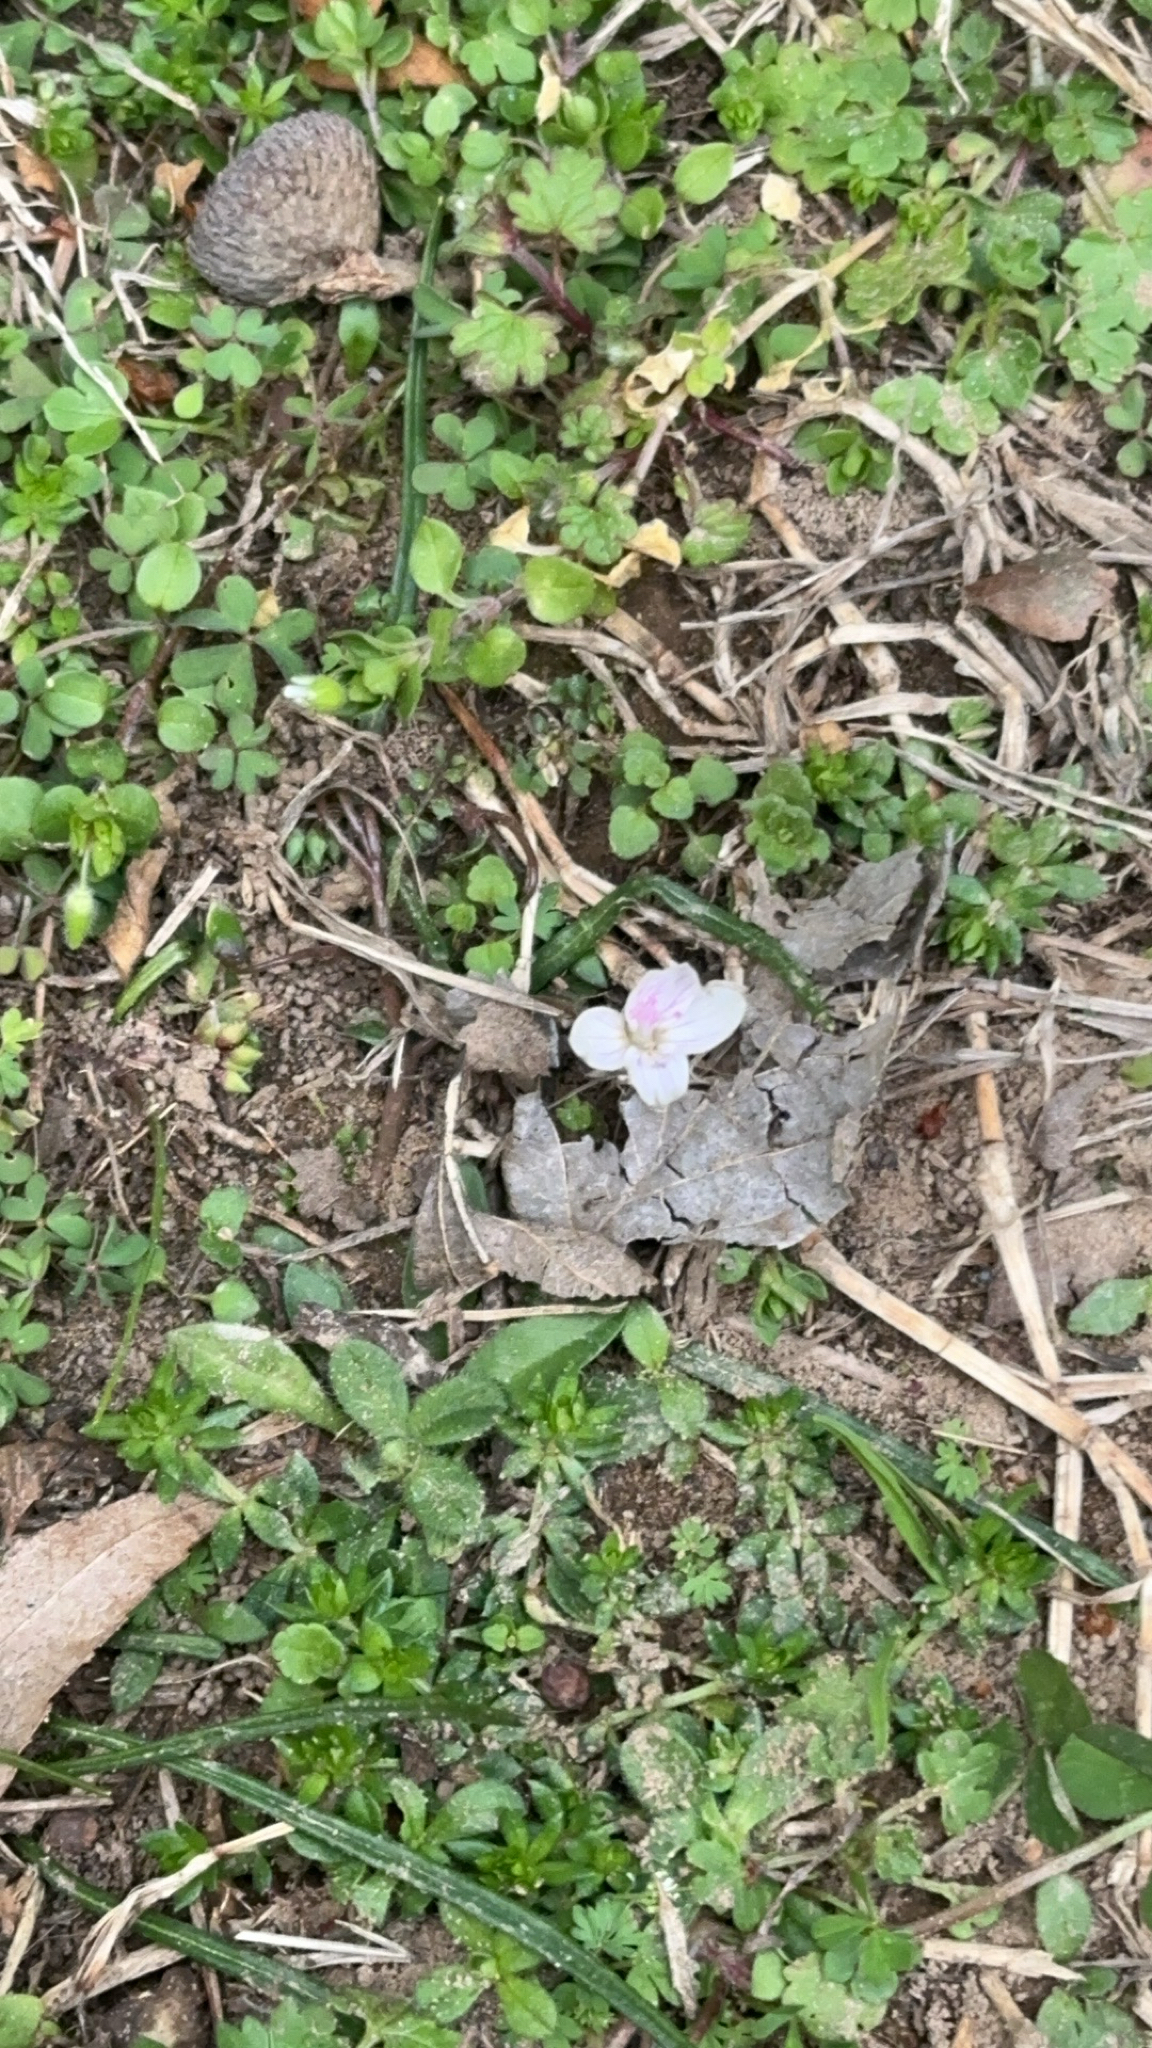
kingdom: Plantae
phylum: Tracheophyta
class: Magnoliopsida
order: Caryophyllales
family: Montiaceae
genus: Claytonia
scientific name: Claytonia virginica
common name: Virginia springbeauty
